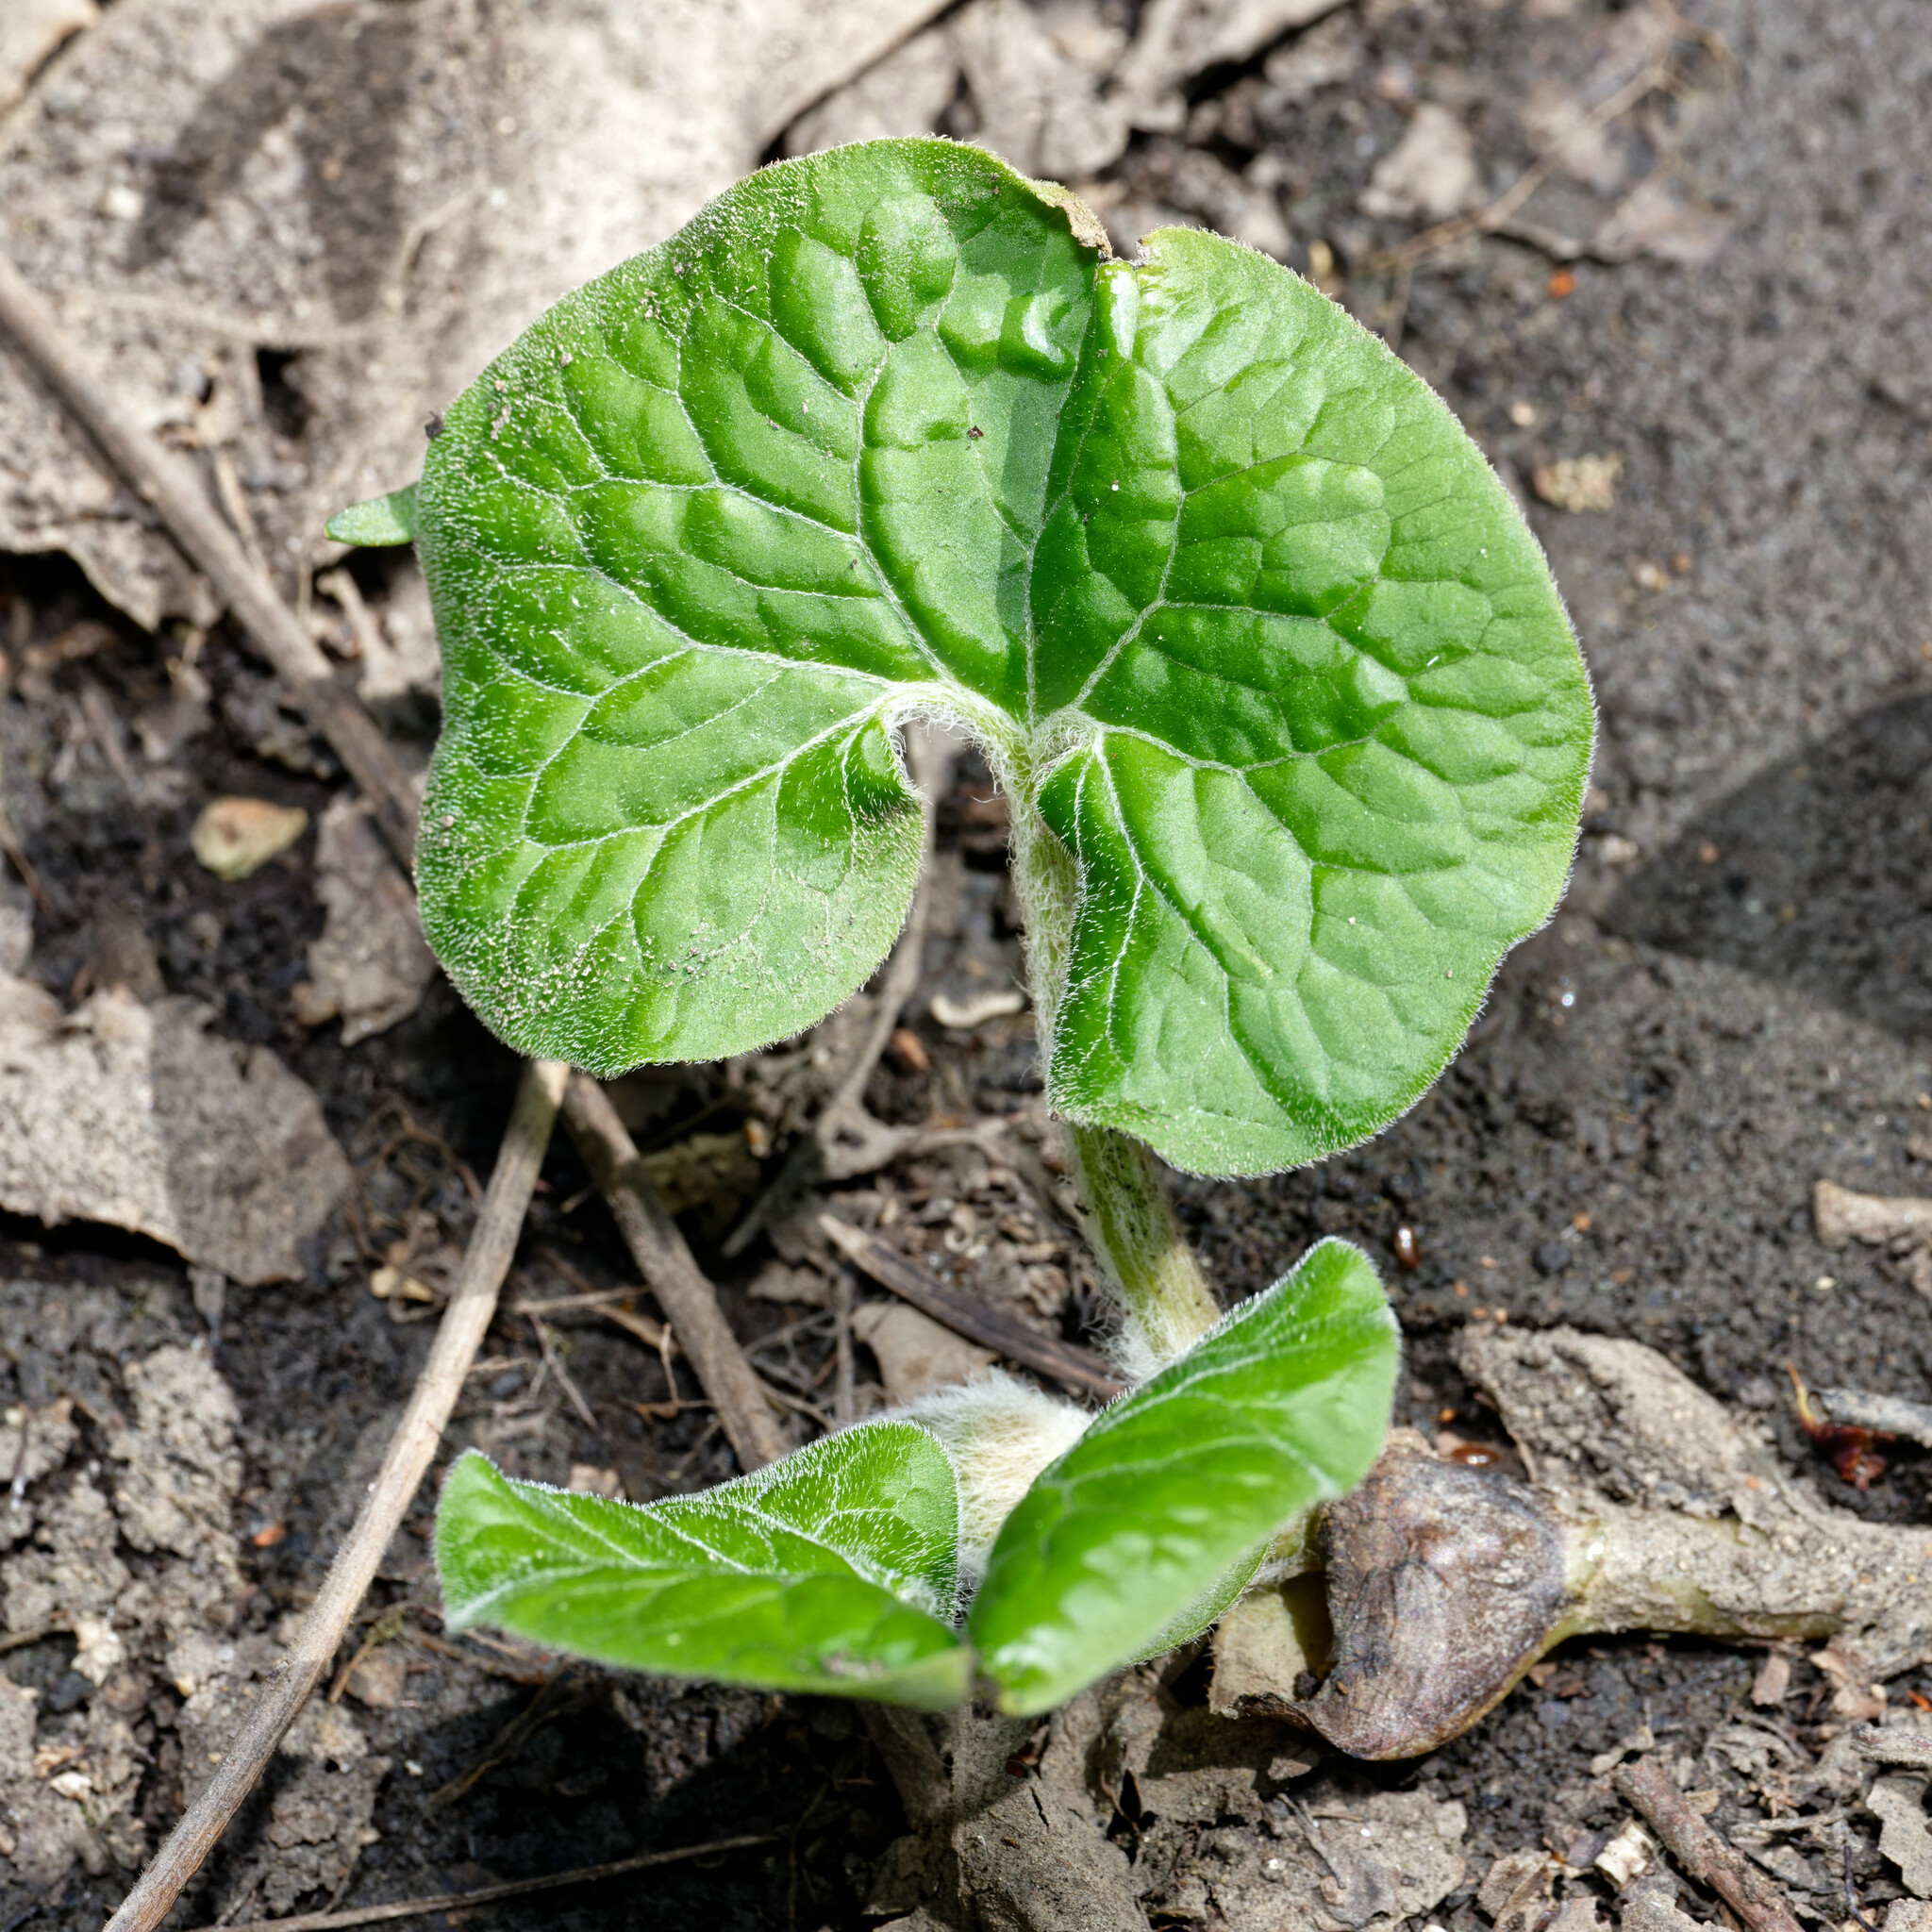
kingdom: Plantae
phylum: Tracheophyta
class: Magnoliopsida
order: Piperales
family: Aristolochiaceae
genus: Asarum
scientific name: Asarum canadense
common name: Wild ginger
